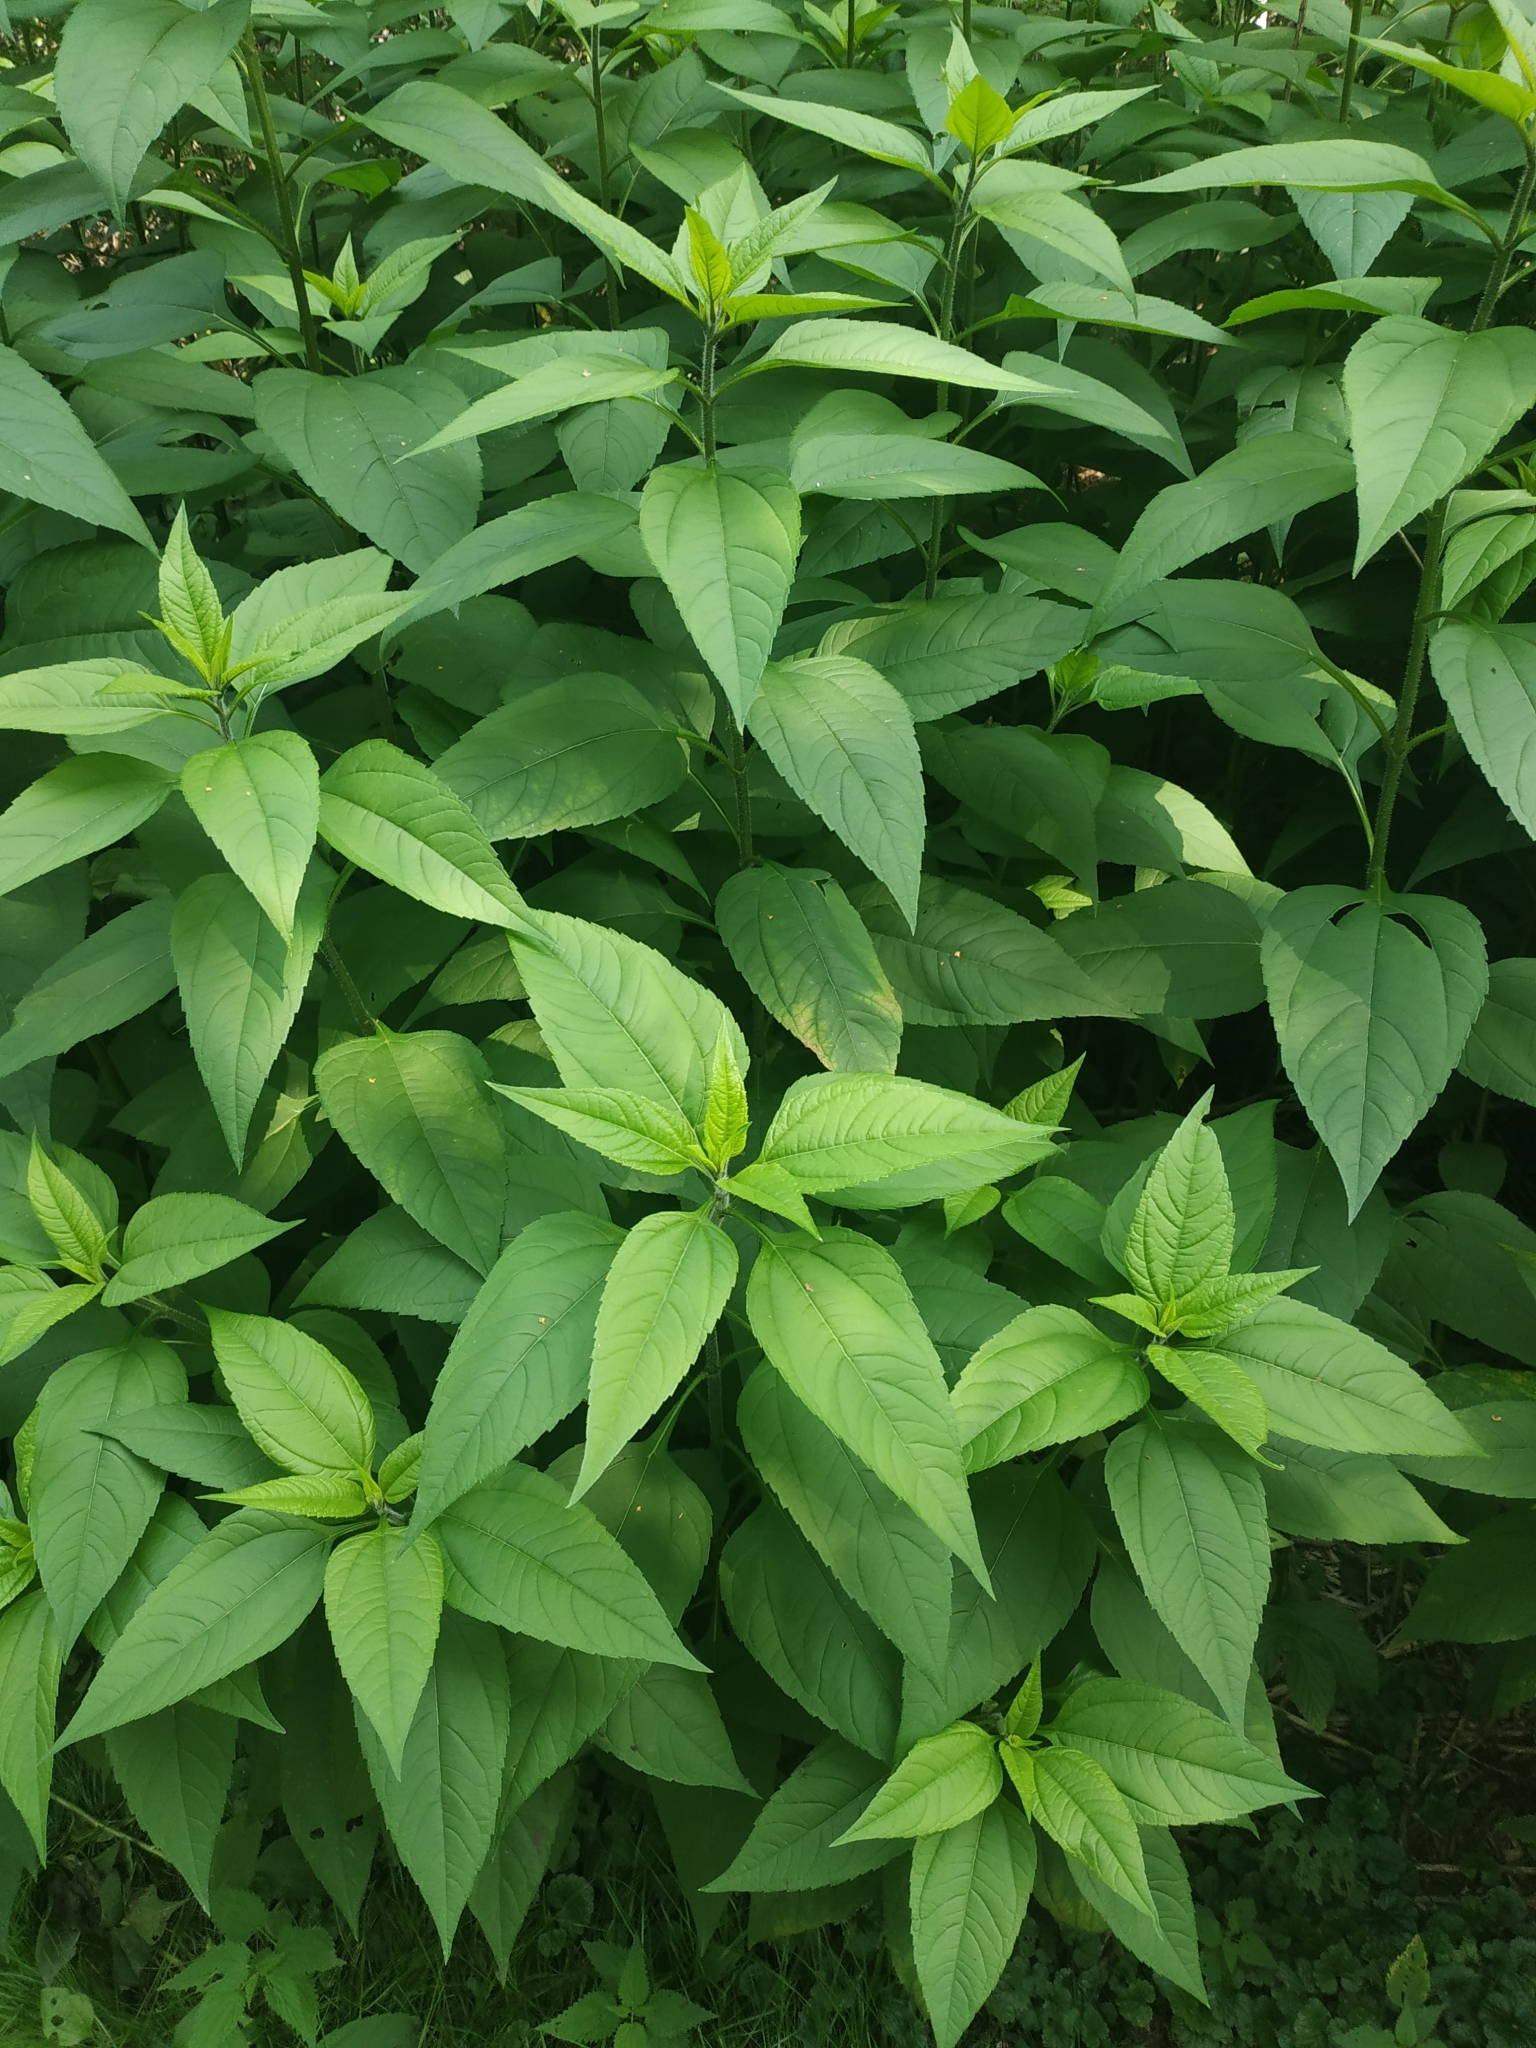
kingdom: Plantae
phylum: Tracheophyta
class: Magnoliopsida
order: Asterales
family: Asteraceae
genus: Helianthus
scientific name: Helianthus tuberosus
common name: Jerusalem artichoke
